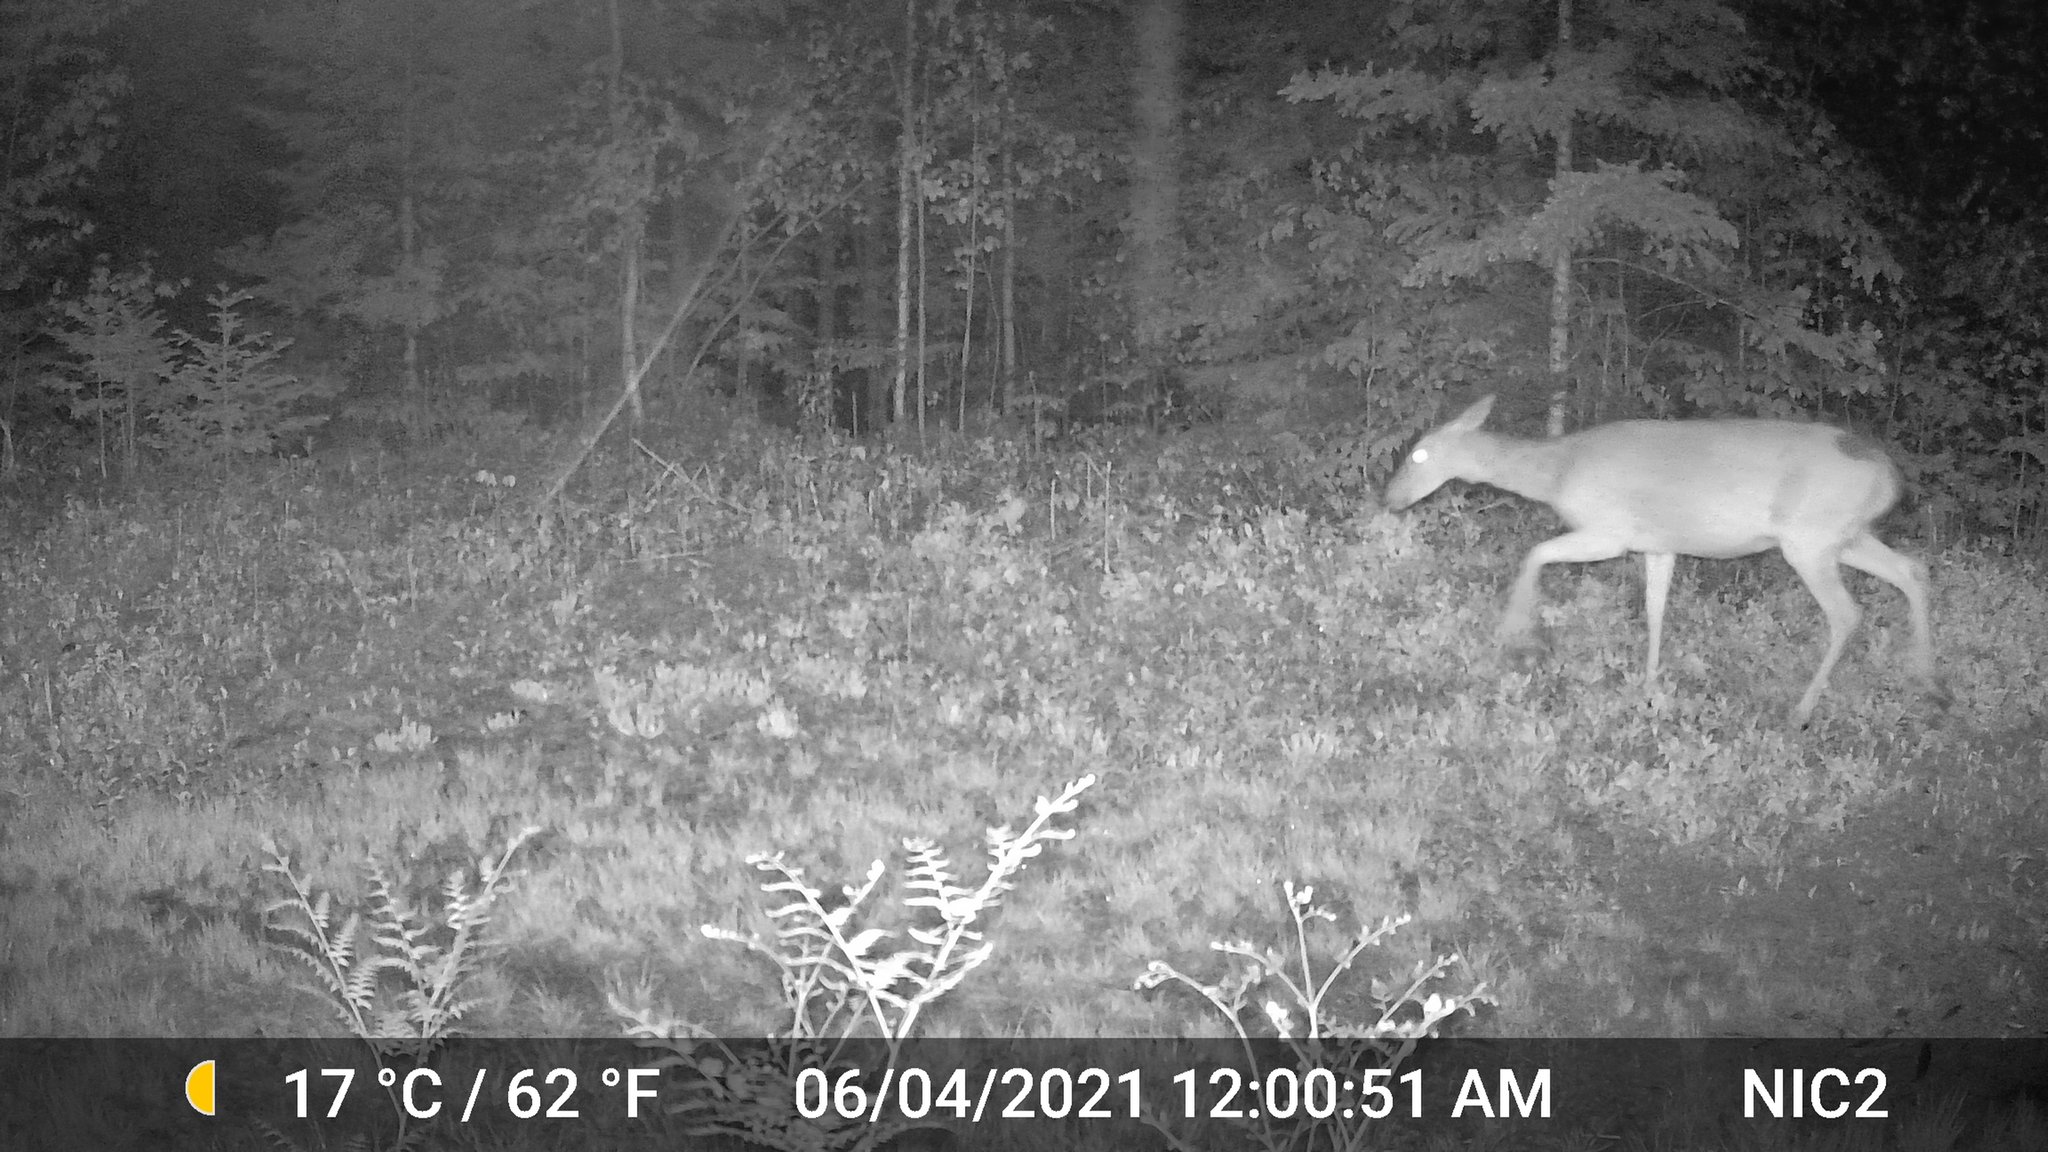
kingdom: Animalia
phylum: Chordata
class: Mammalia
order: Artiodactyla
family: Cervidae
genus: Odocoileus
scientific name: Odocoileus virginianus
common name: White-tailed deer
